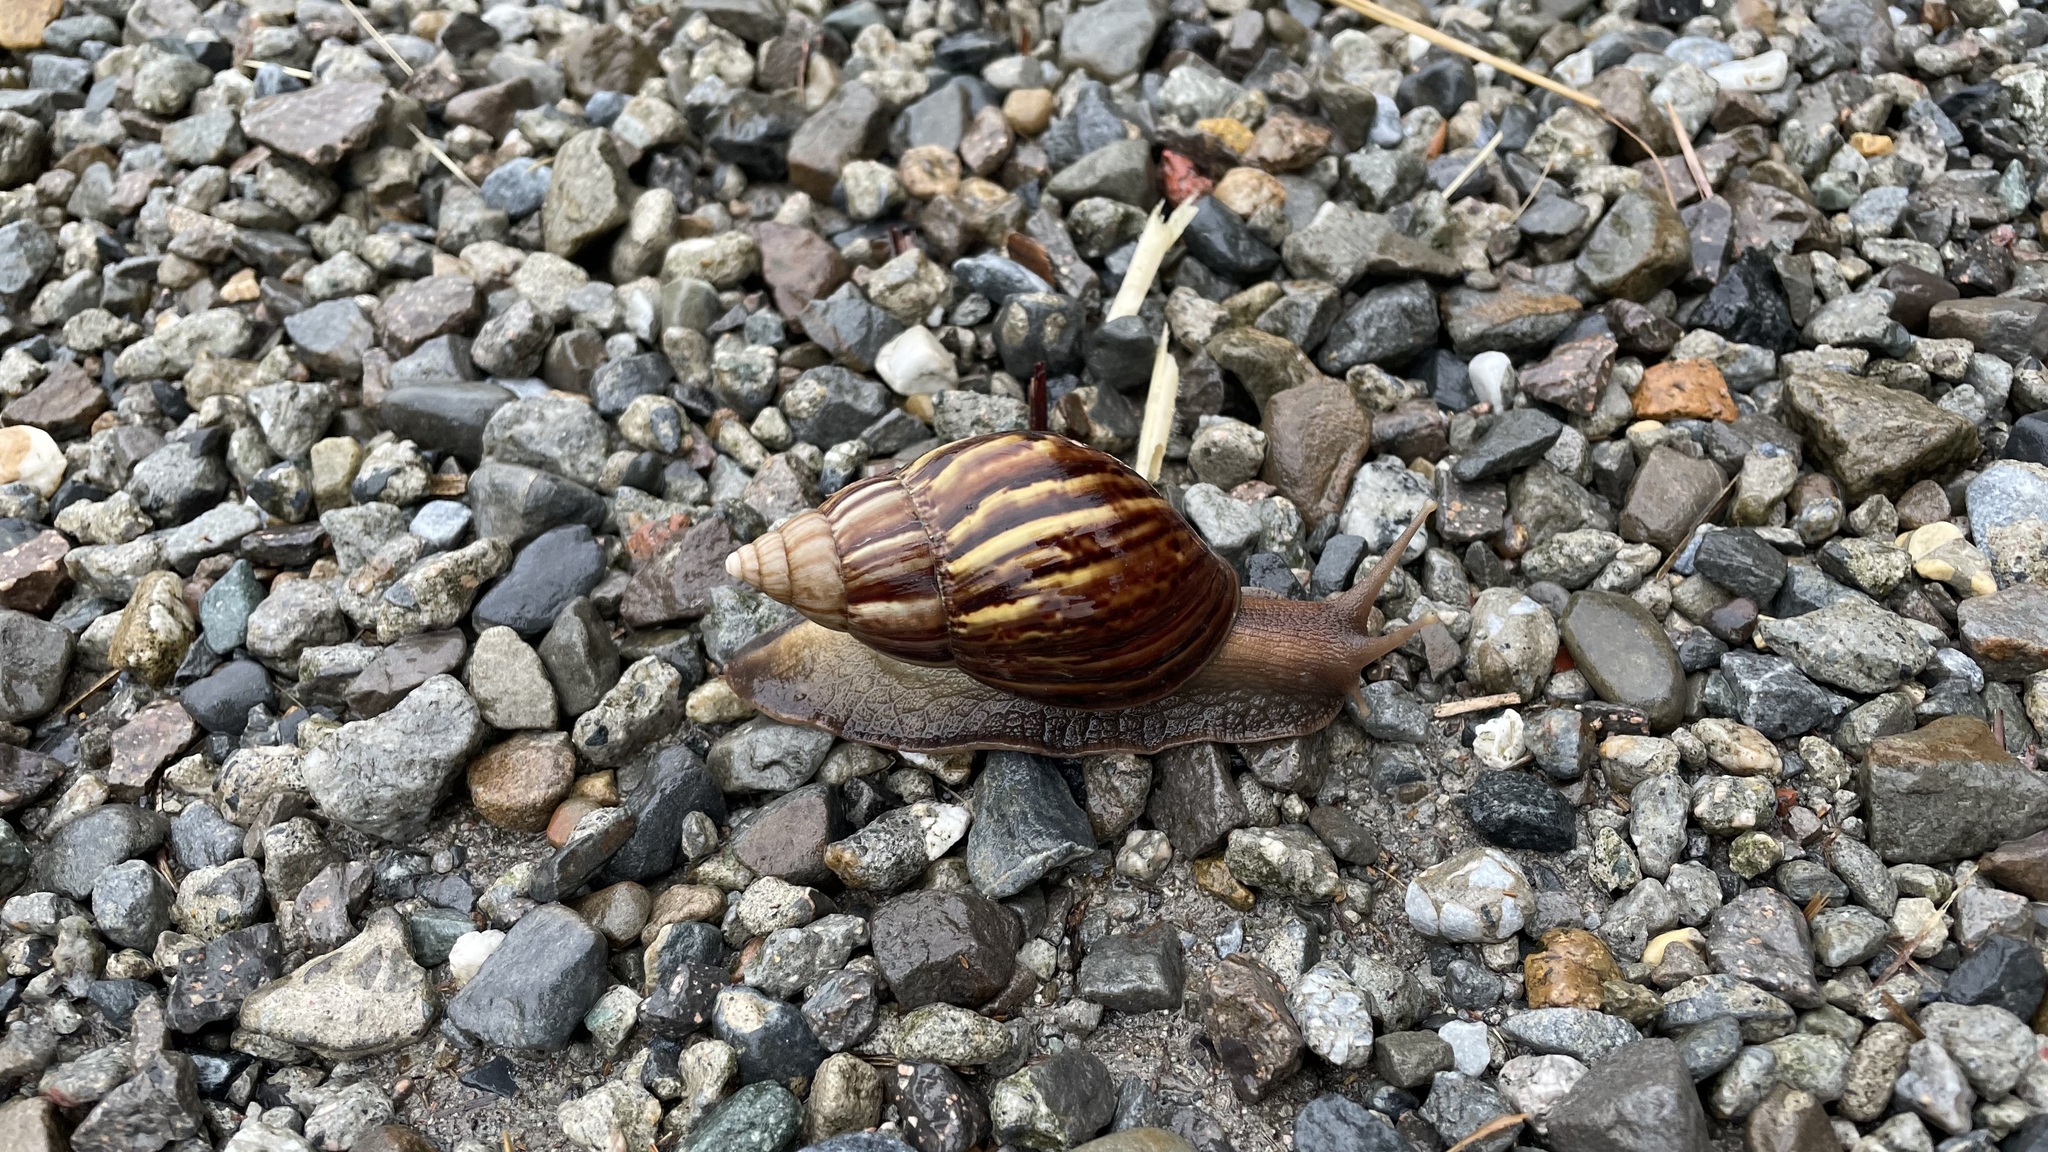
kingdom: Animalia
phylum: Mollusca
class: Gastropoda
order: Stylommatophora
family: Achatinidae
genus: Lissachatina
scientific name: Lissachatina fulica
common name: Giant african snail
